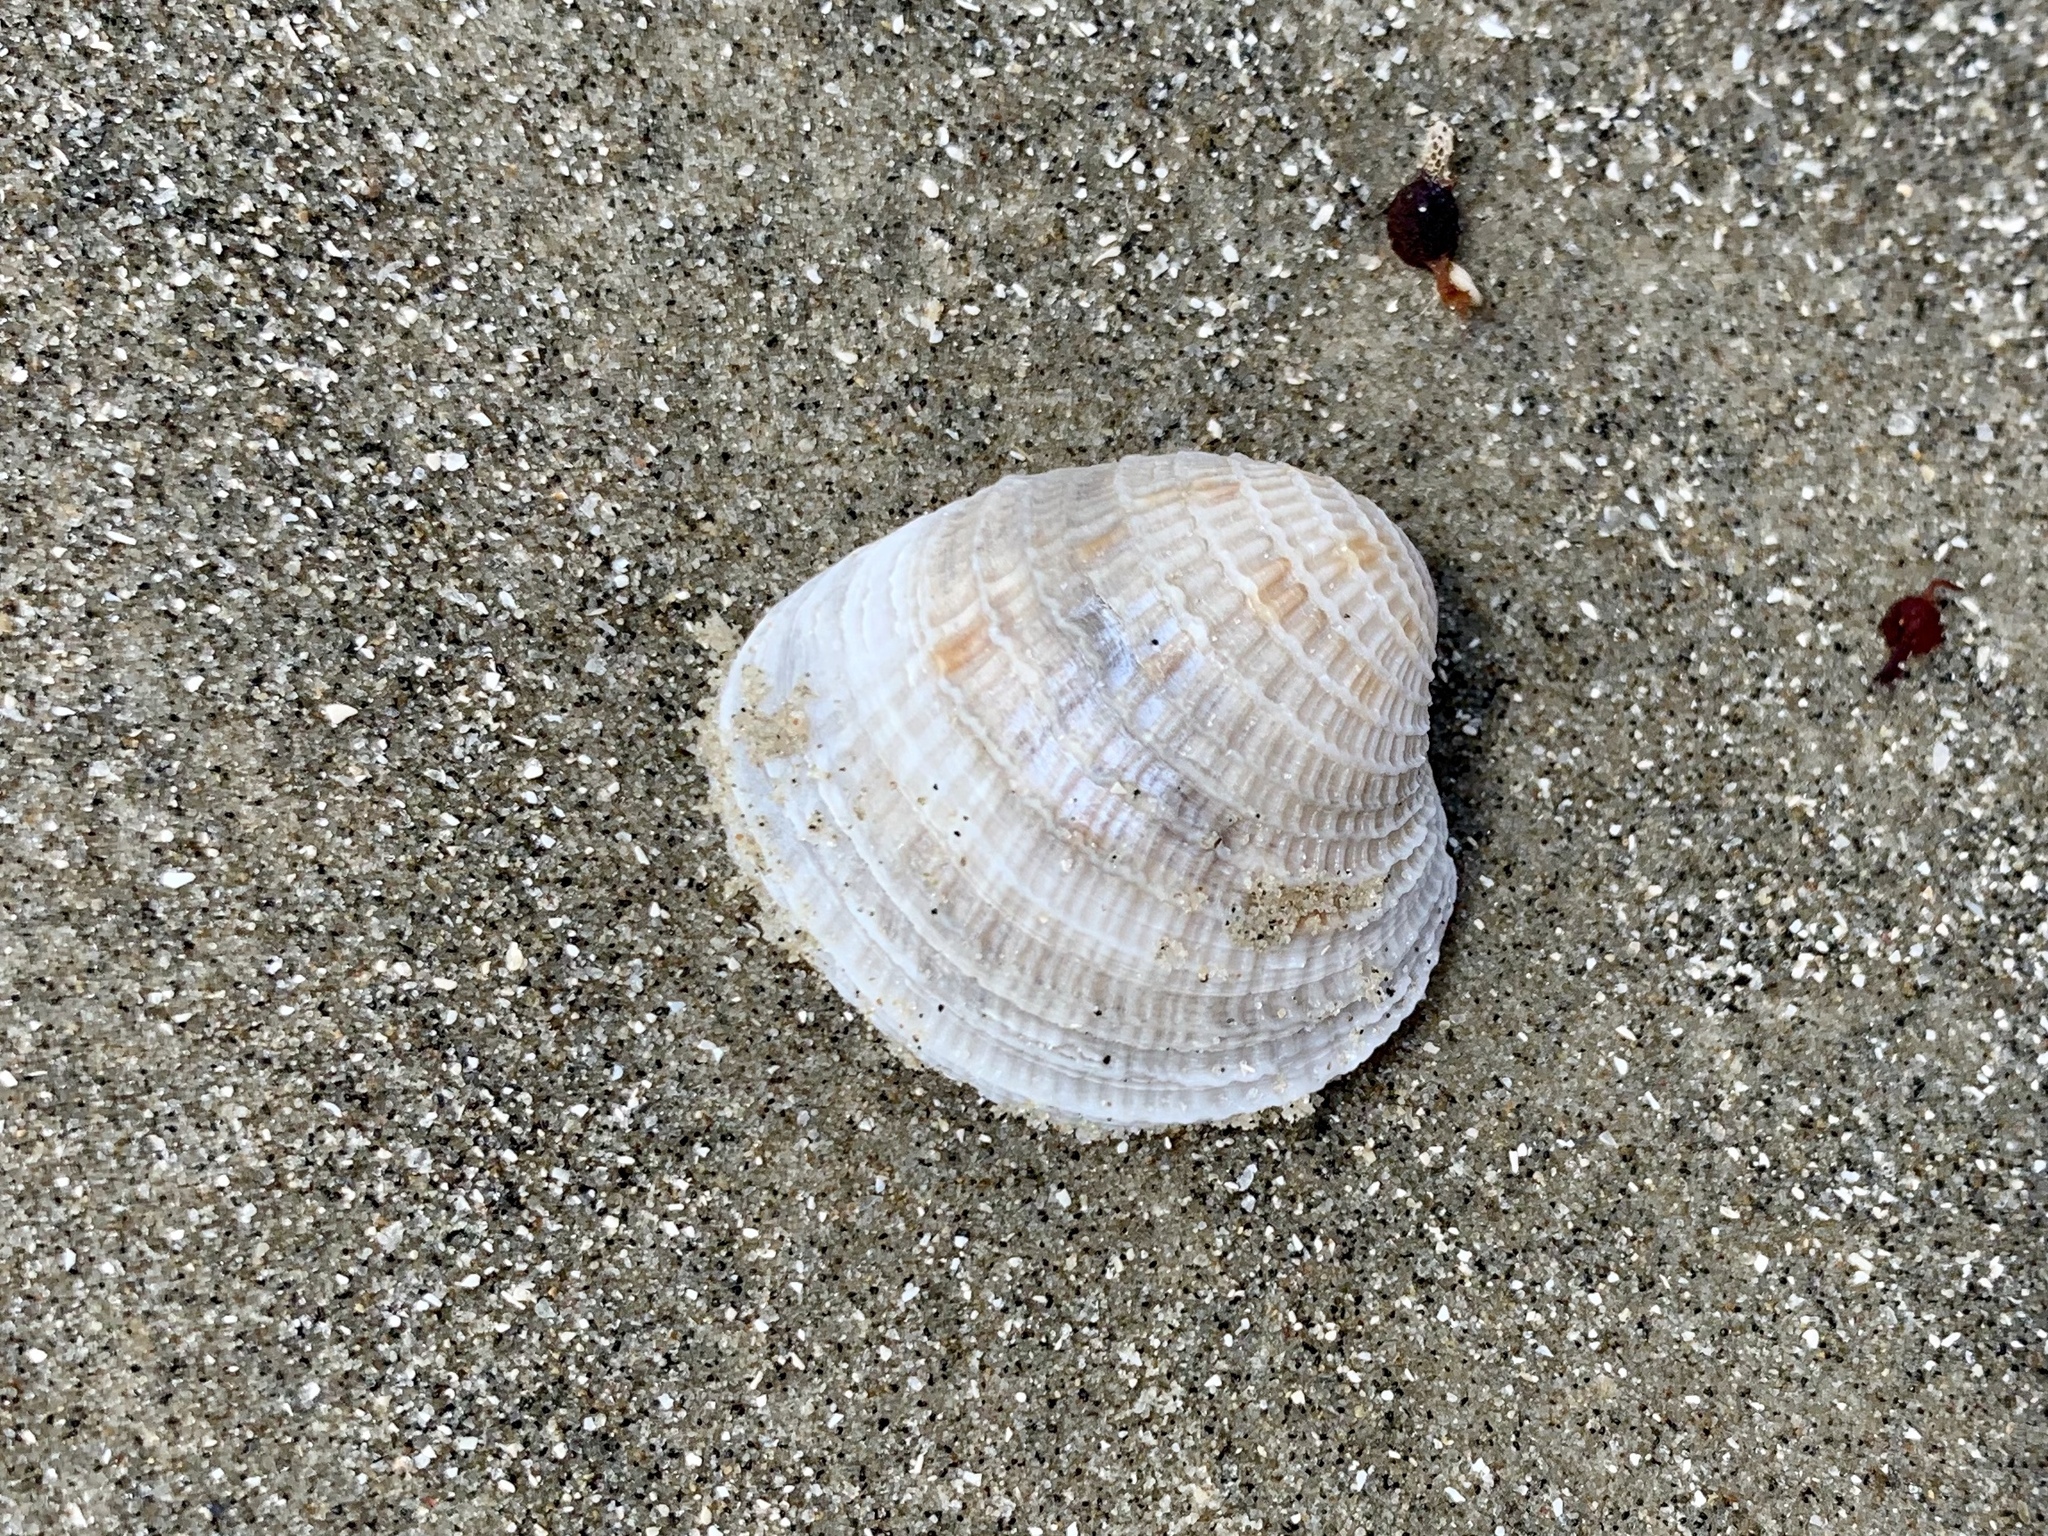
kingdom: Animalia
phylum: Mollusca
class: Bivalvia
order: Venerida
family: Veneridae
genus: Chione
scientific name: Chione elevata
